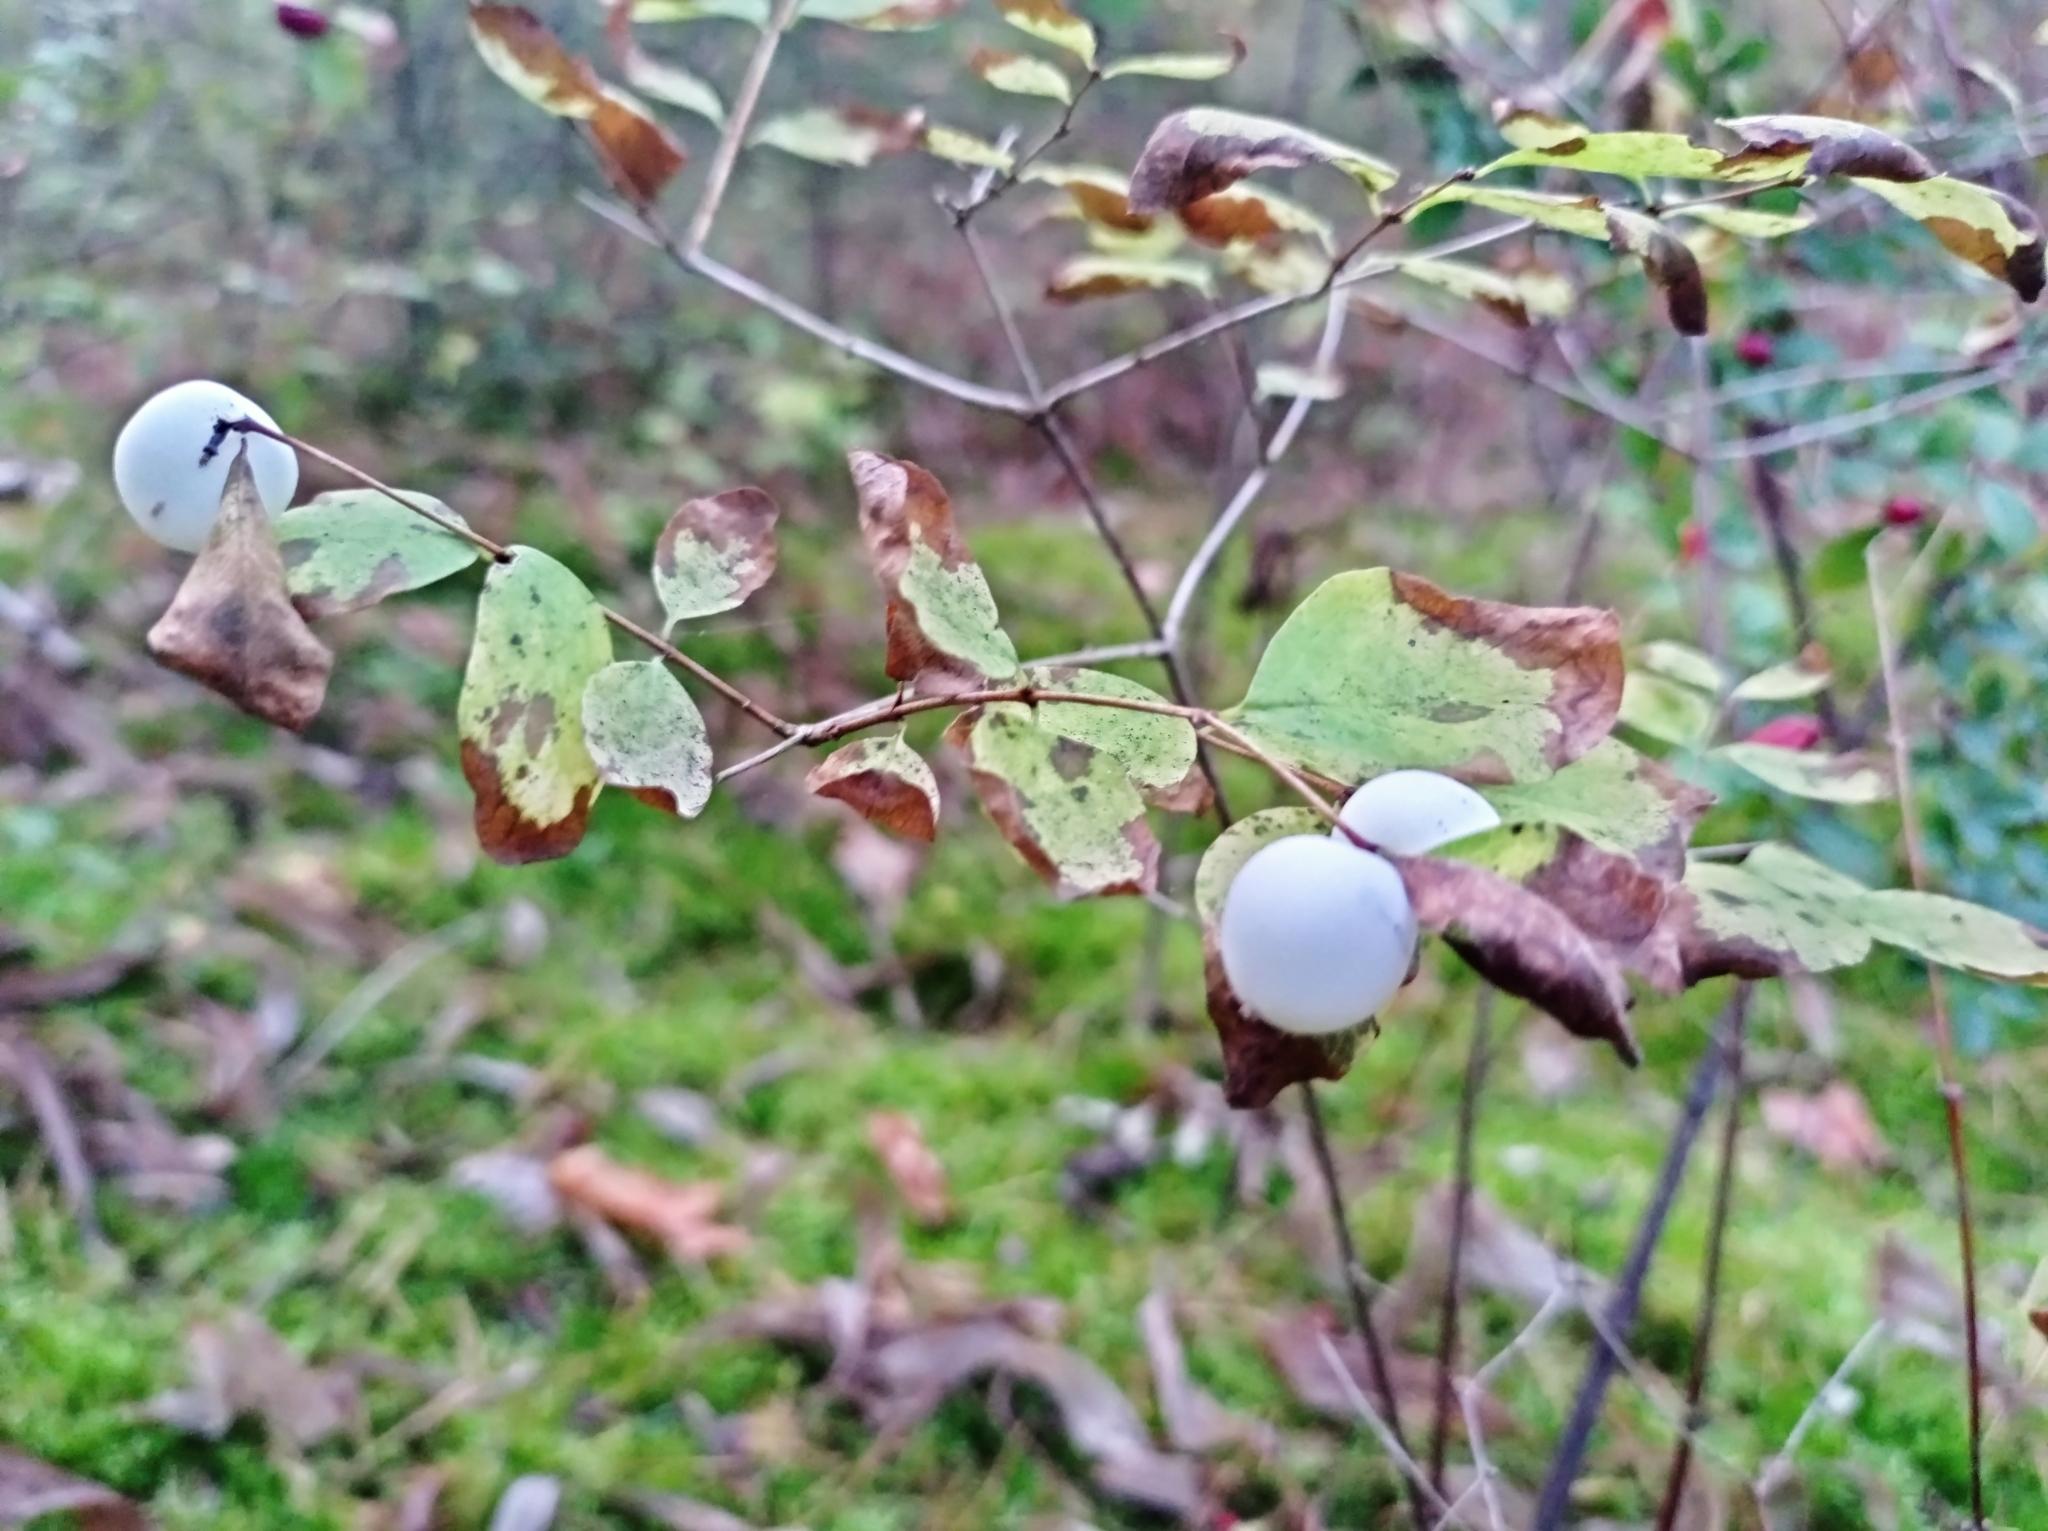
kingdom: Plantae
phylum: Tracheophyta
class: Magnoliopsida
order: Dipsacales
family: Caprifoliaceae
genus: Symphoricarpos
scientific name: Symphoricarpos albus
